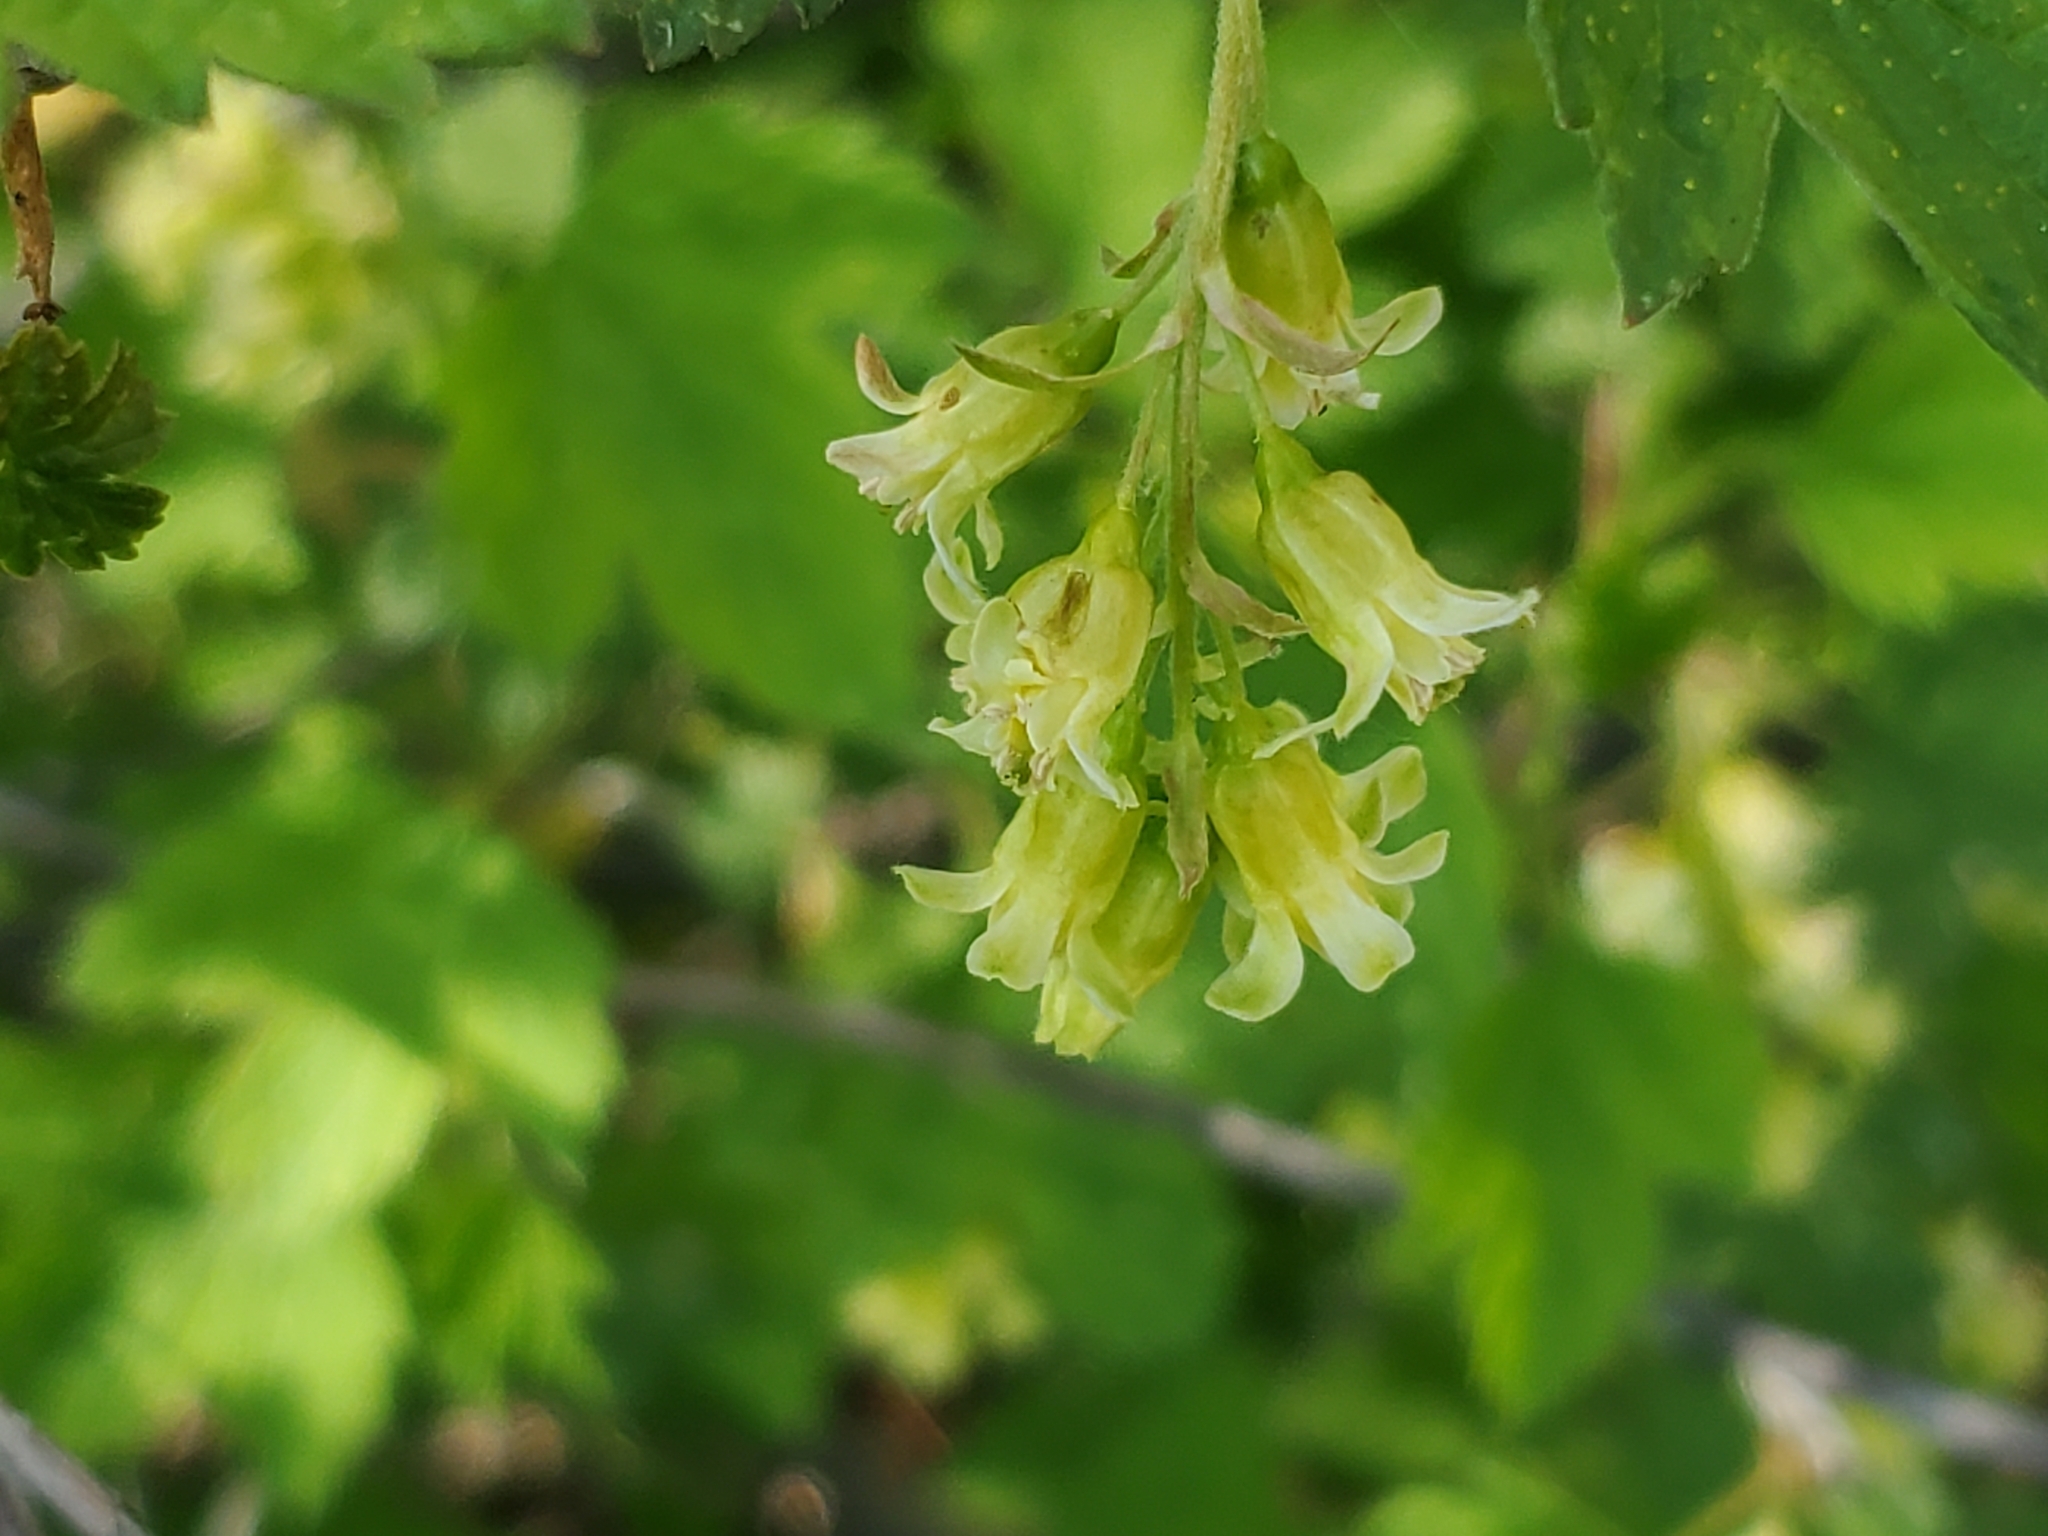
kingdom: Plantae
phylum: Tracheophyta
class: Magnoliopsida
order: Saxifragales
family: Grossulariaceae
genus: Ribes
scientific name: Ribes americanum
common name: American black currant
